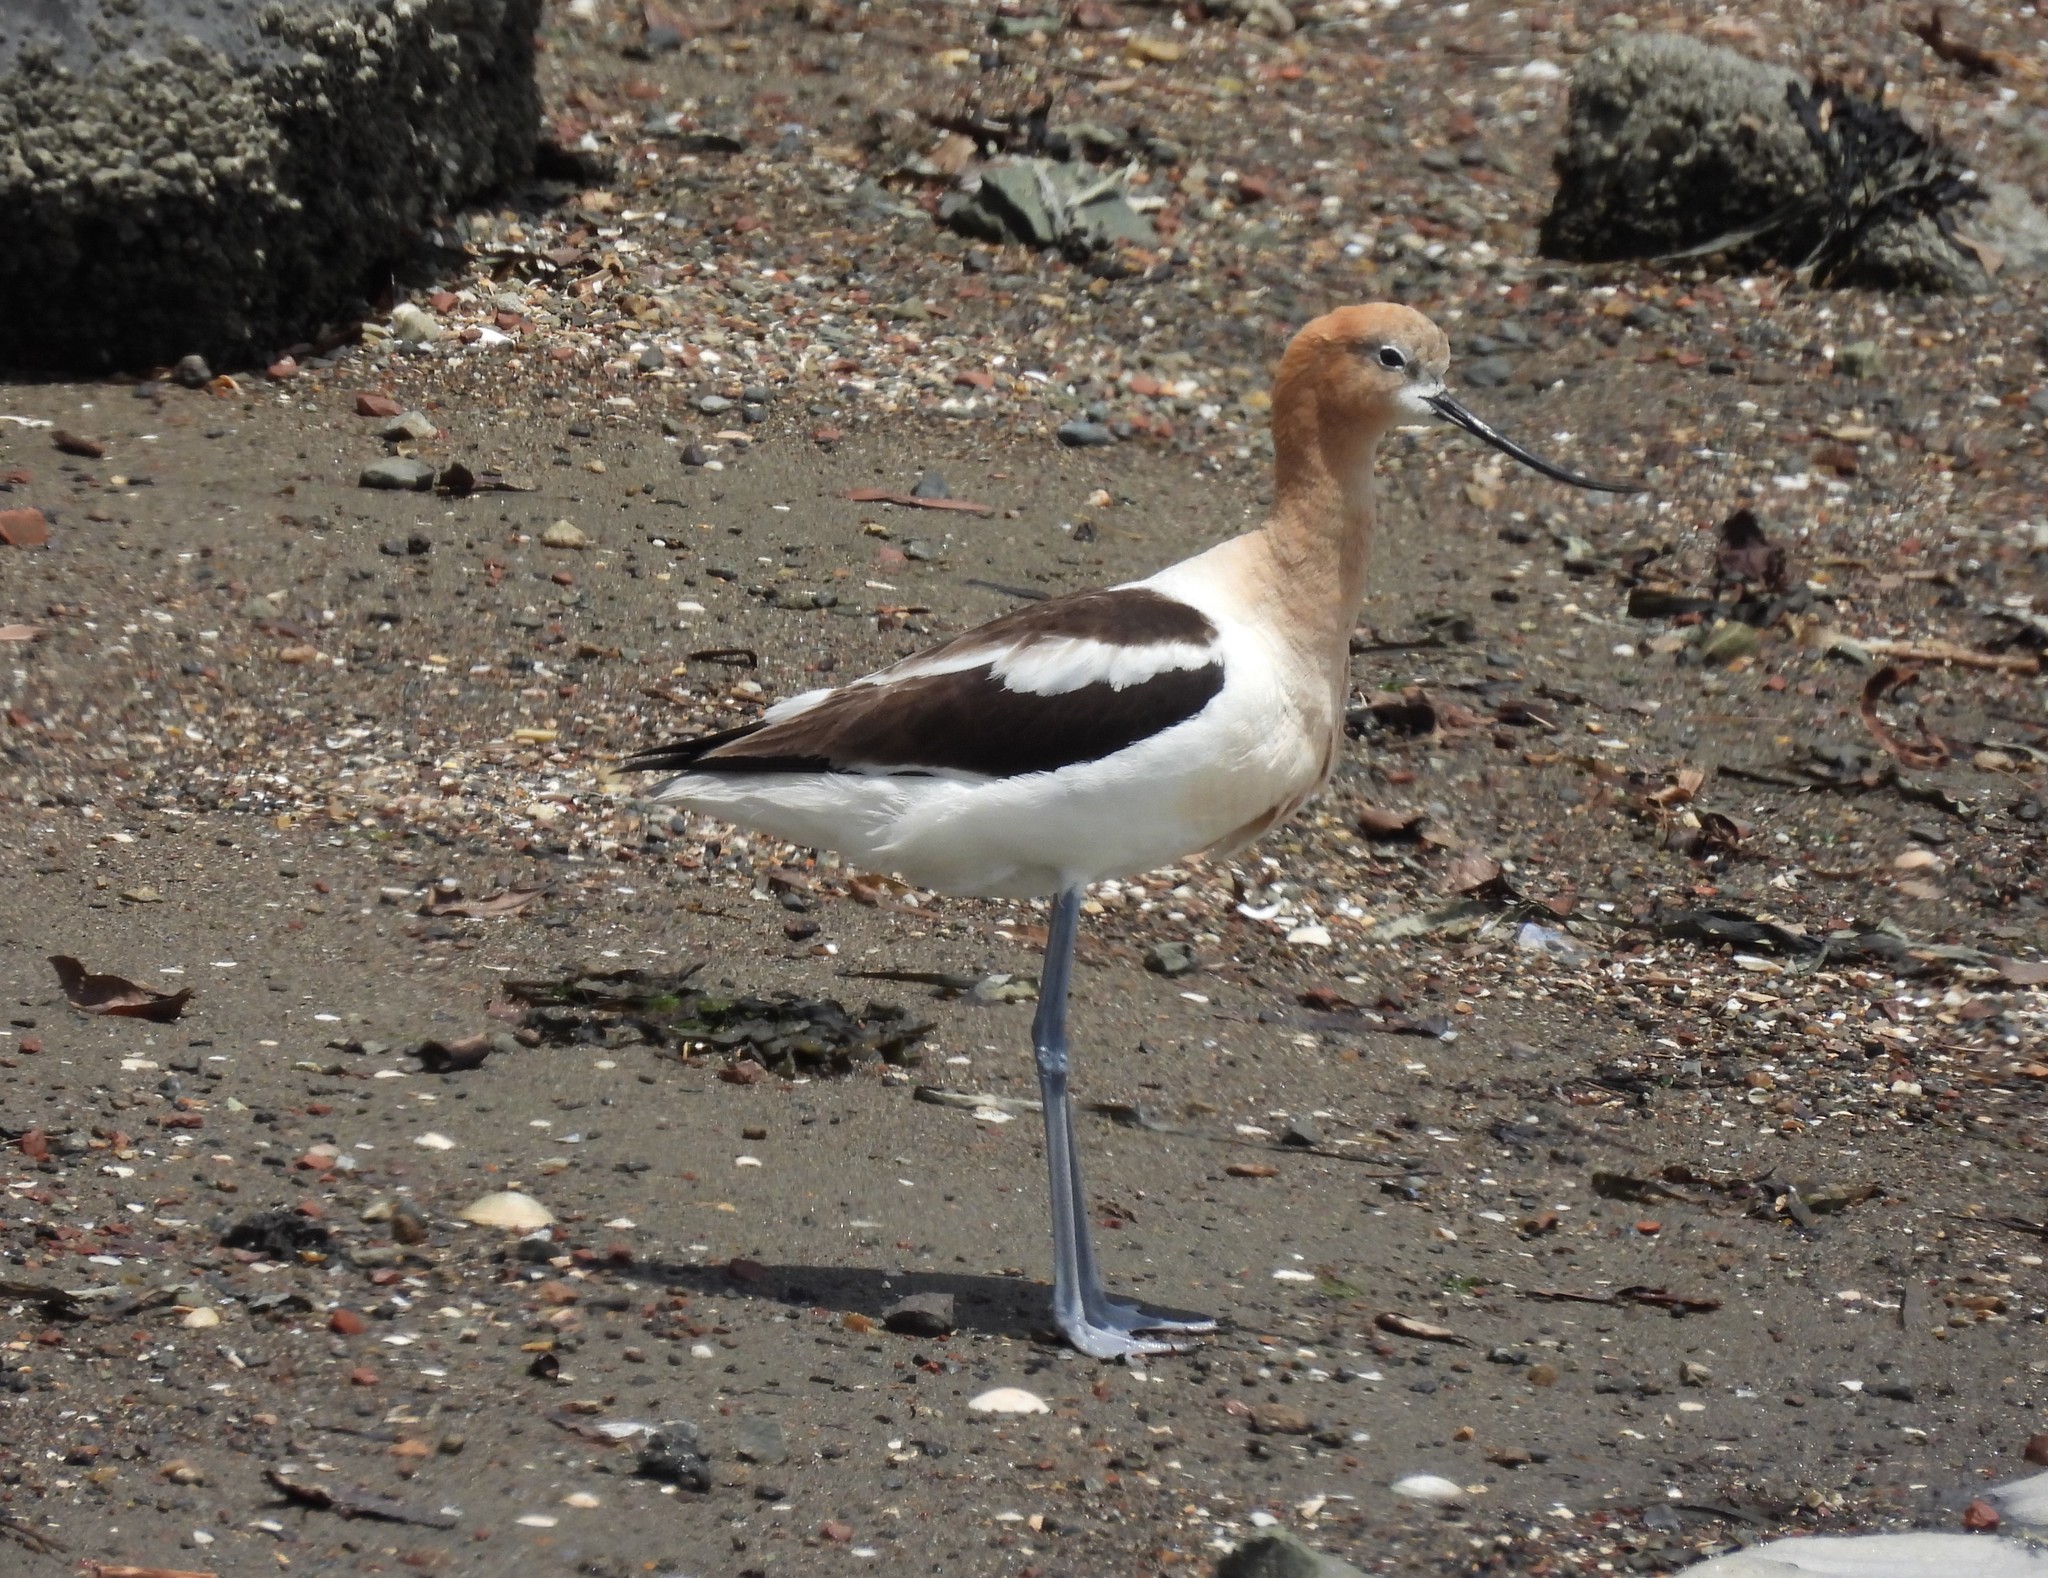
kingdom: Animalia
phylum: Chordata
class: Aves
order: Charadriiformes
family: Recurvirostridae
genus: Recurvirostra
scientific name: Recurvirostra americana
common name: American avocet
